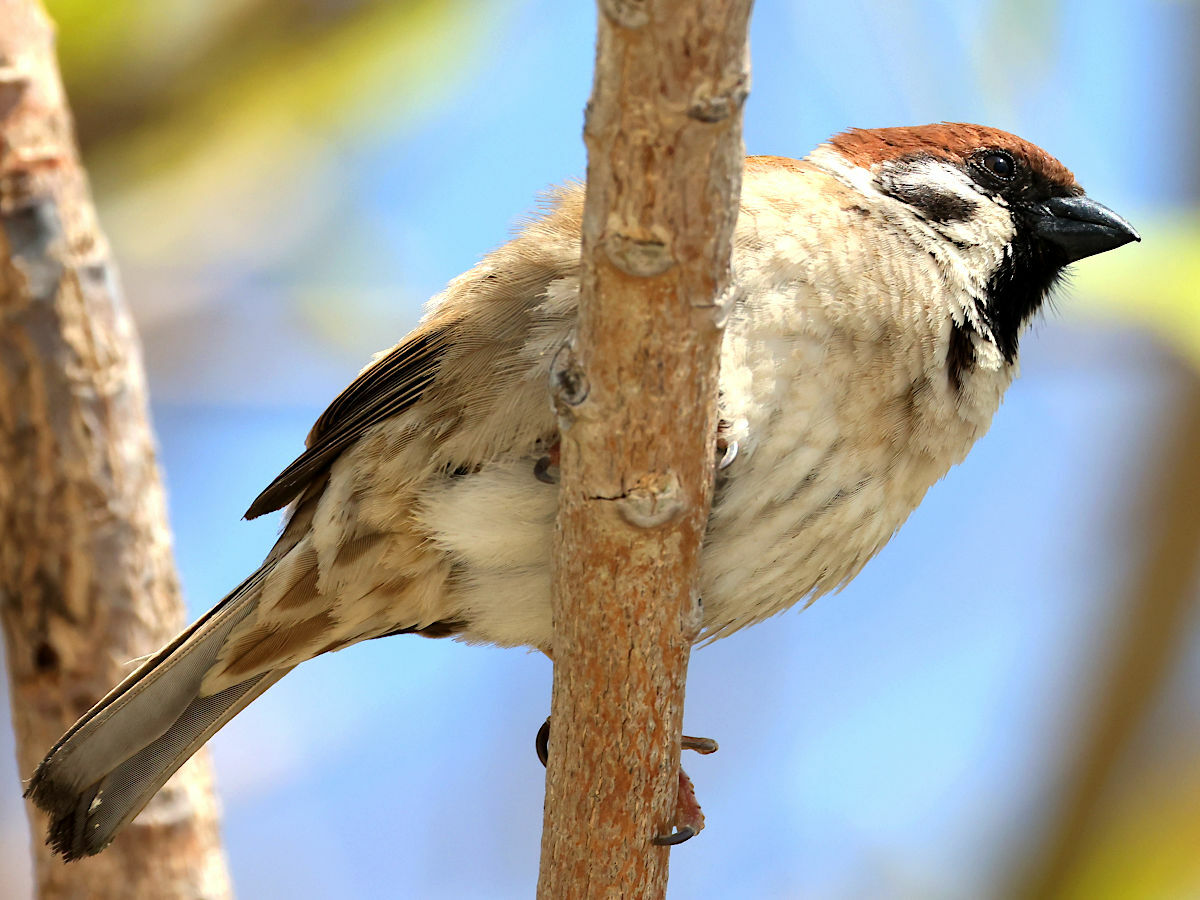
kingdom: Animalia
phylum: Chordata
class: Aves
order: Passeriformes
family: Passeridae
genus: Passer
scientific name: Passer montanus
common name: Eurasian tree sparrow
